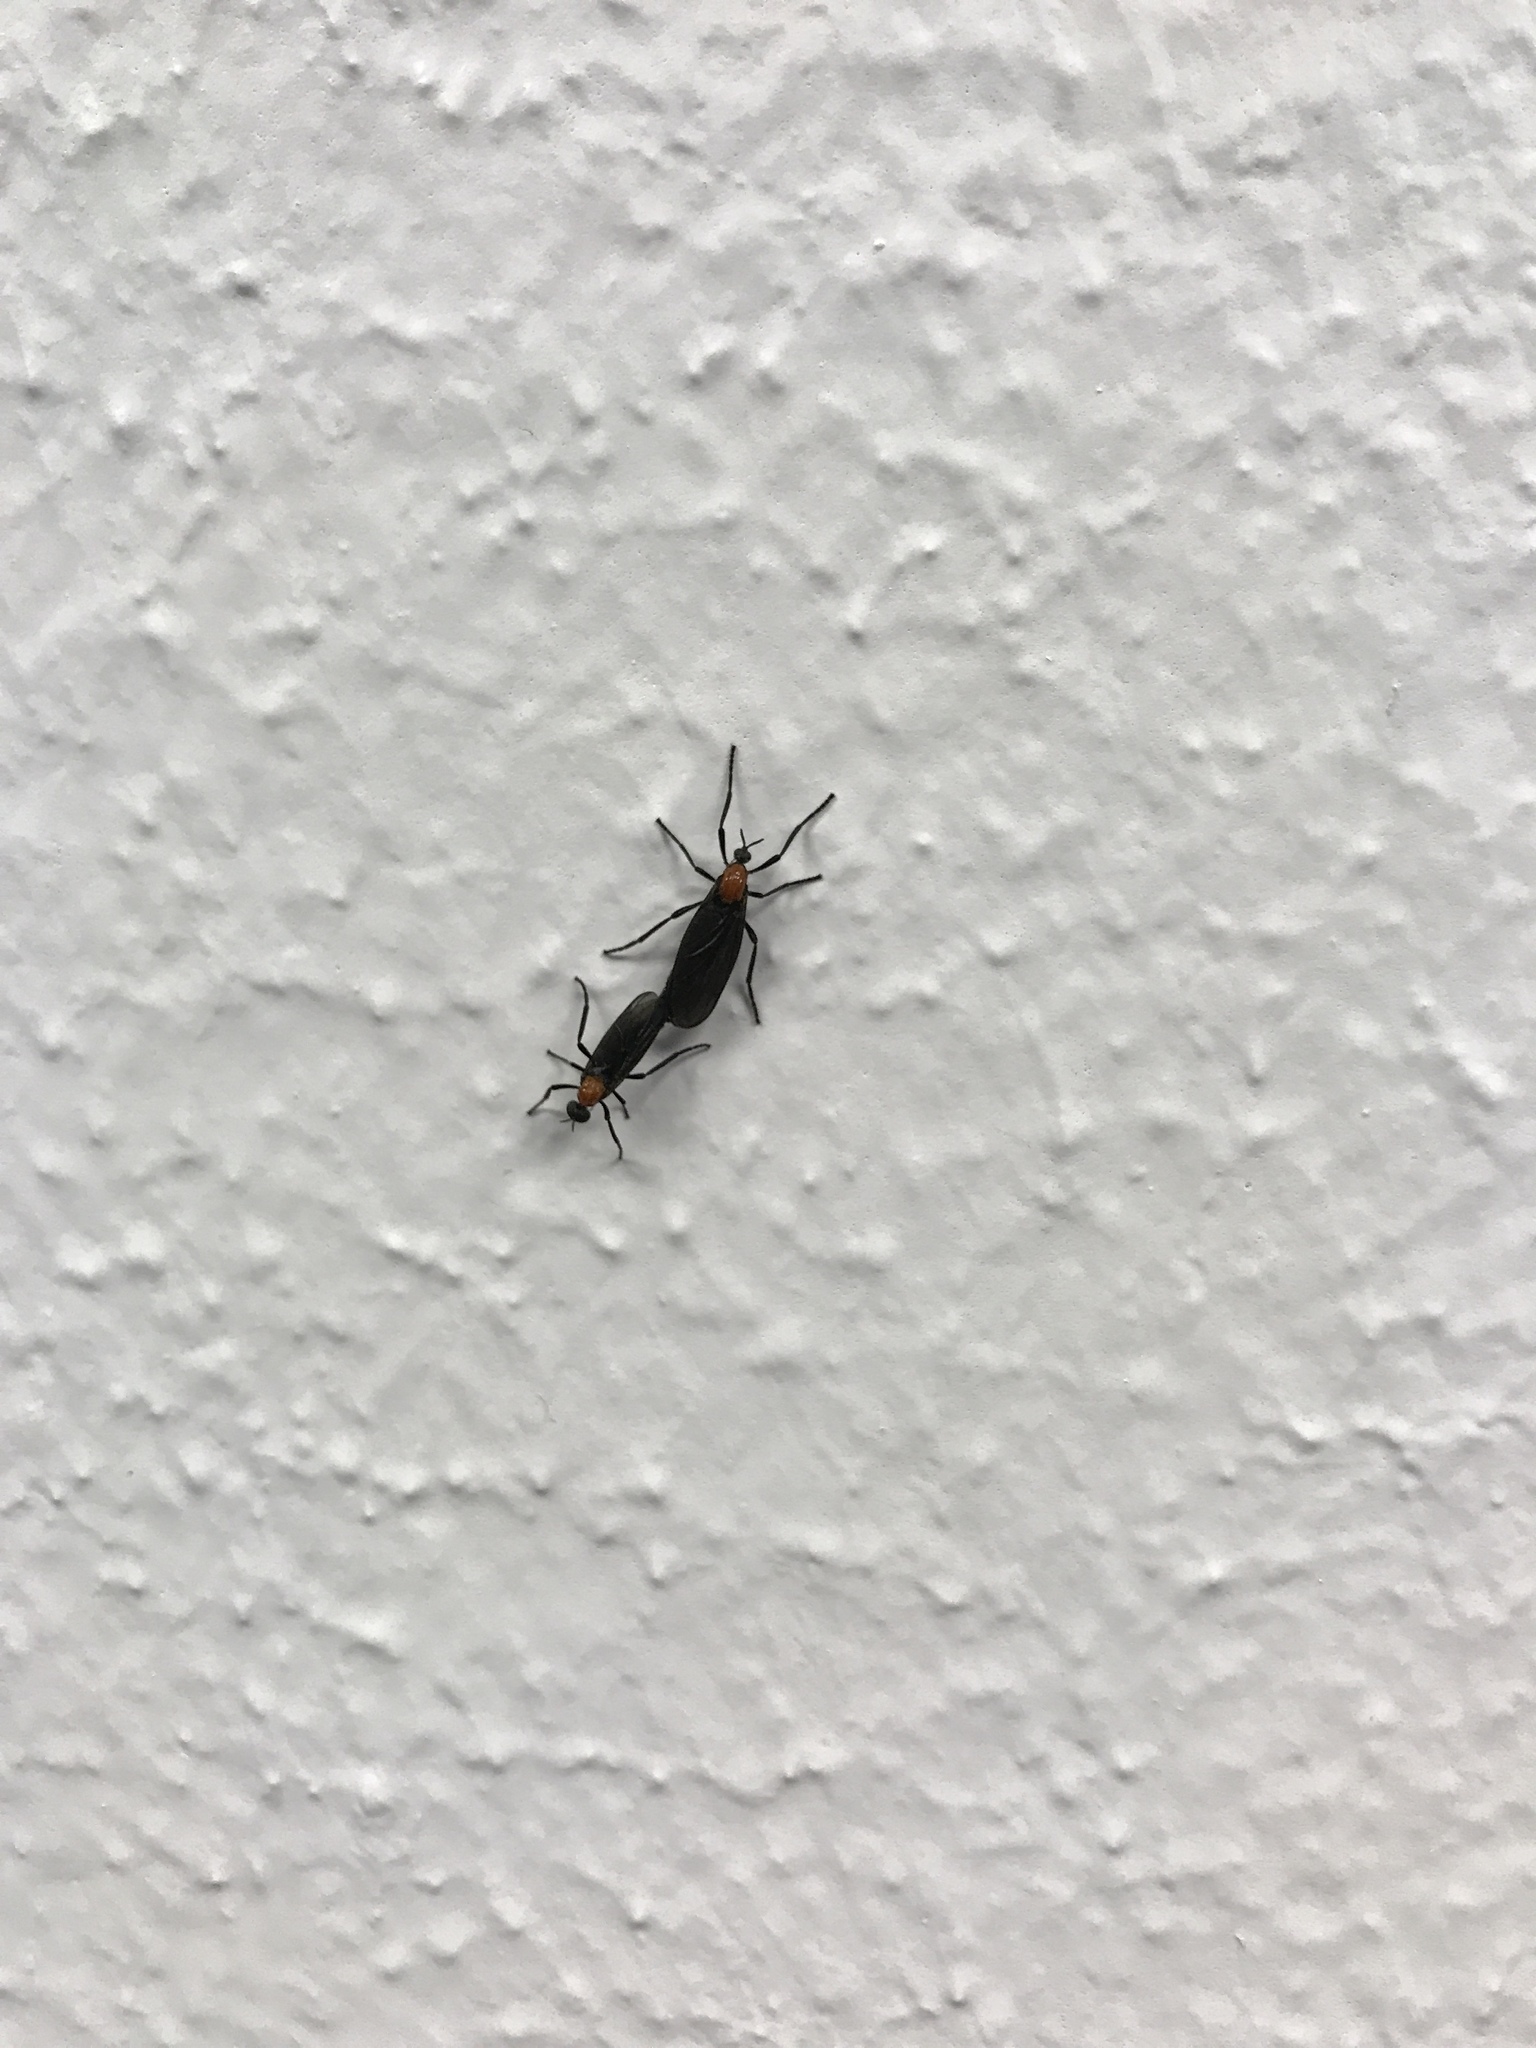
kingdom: Animalia
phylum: Arthropoda
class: Insecta
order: Diptera
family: Bibionidae
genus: Plecia
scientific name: Plecia nearctica
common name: March fly
